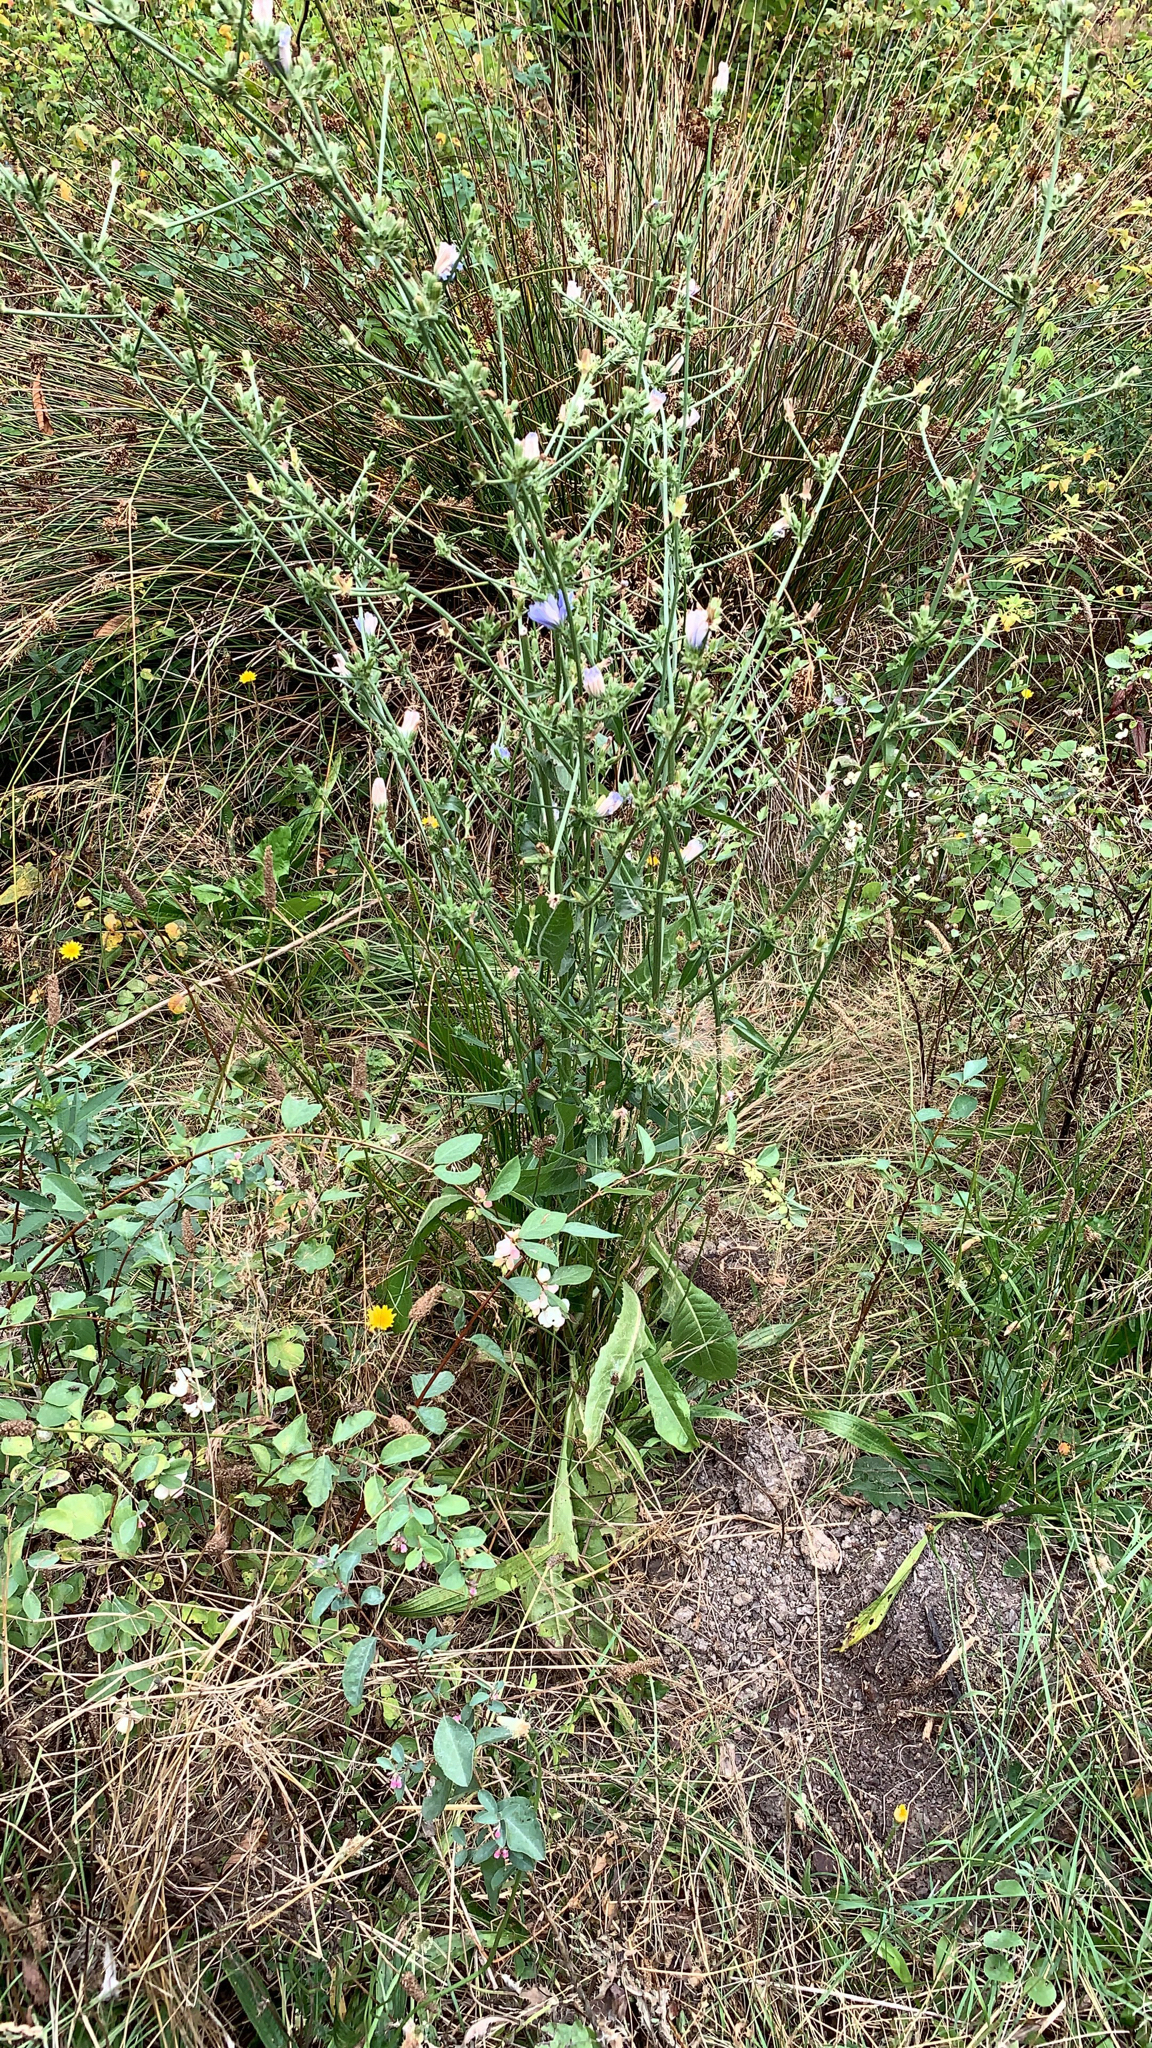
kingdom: Plantae
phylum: Tracheophyta
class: Magnoliopsida
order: Asterales
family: Asteraceae
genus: Cichorium
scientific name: Cichorium intybus
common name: Chicory
